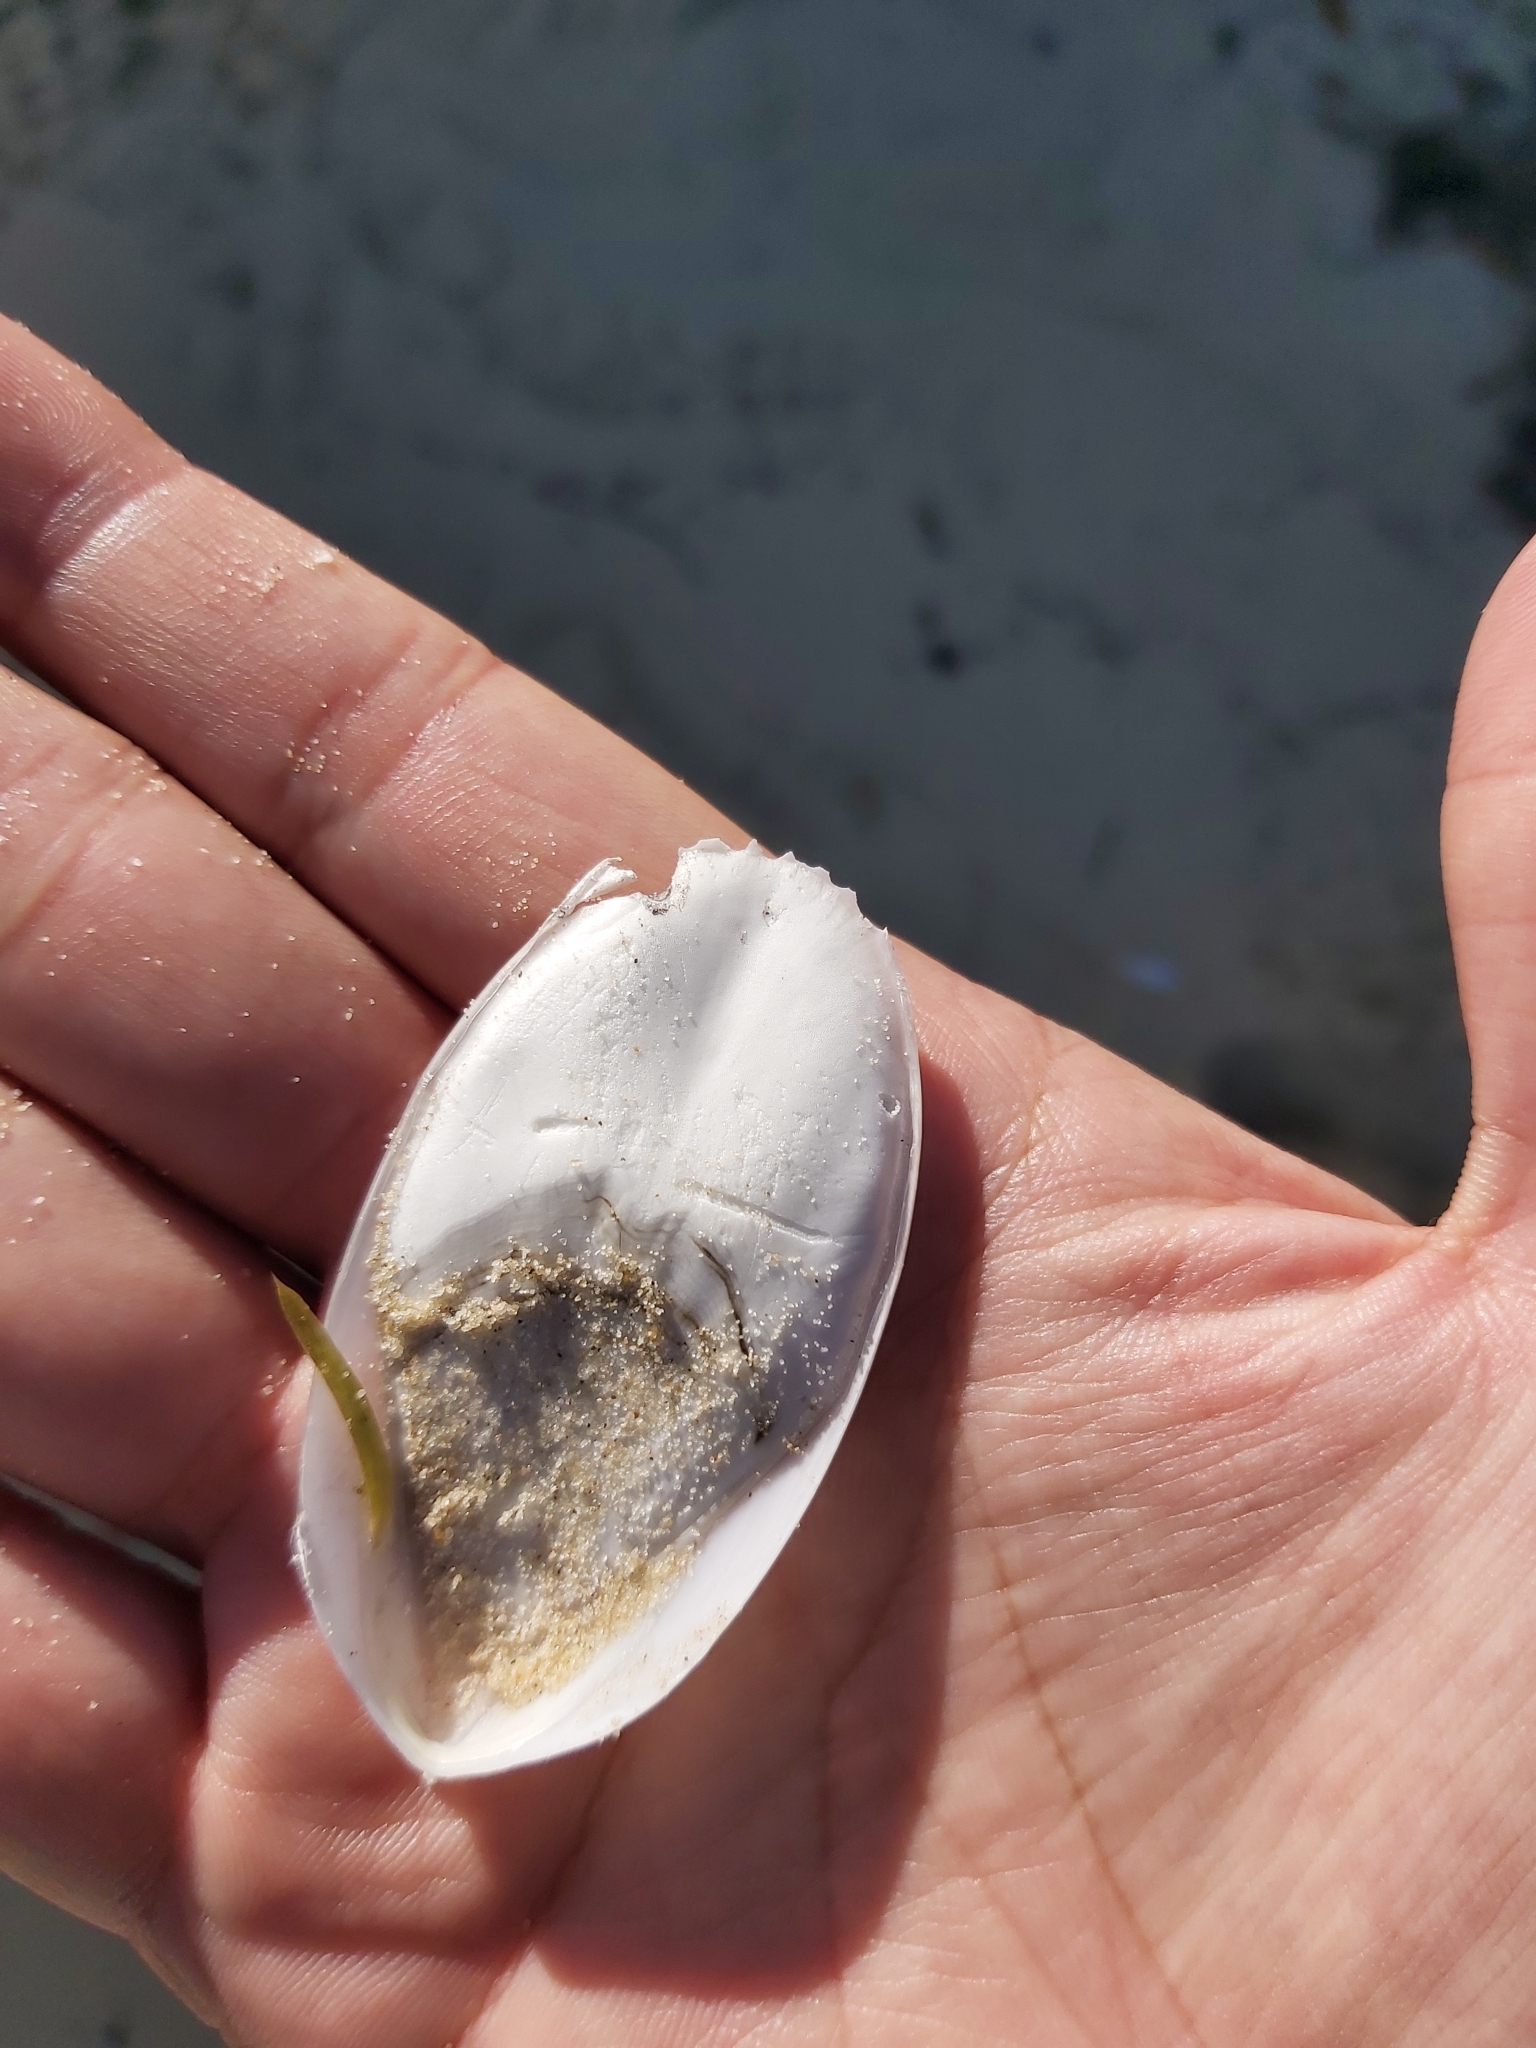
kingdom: Animalia
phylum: Mollusca
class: Cephalopoda
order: Sepiida
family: Sepiidae
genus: Ascarosepion
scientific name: Ascarosepion mestus
